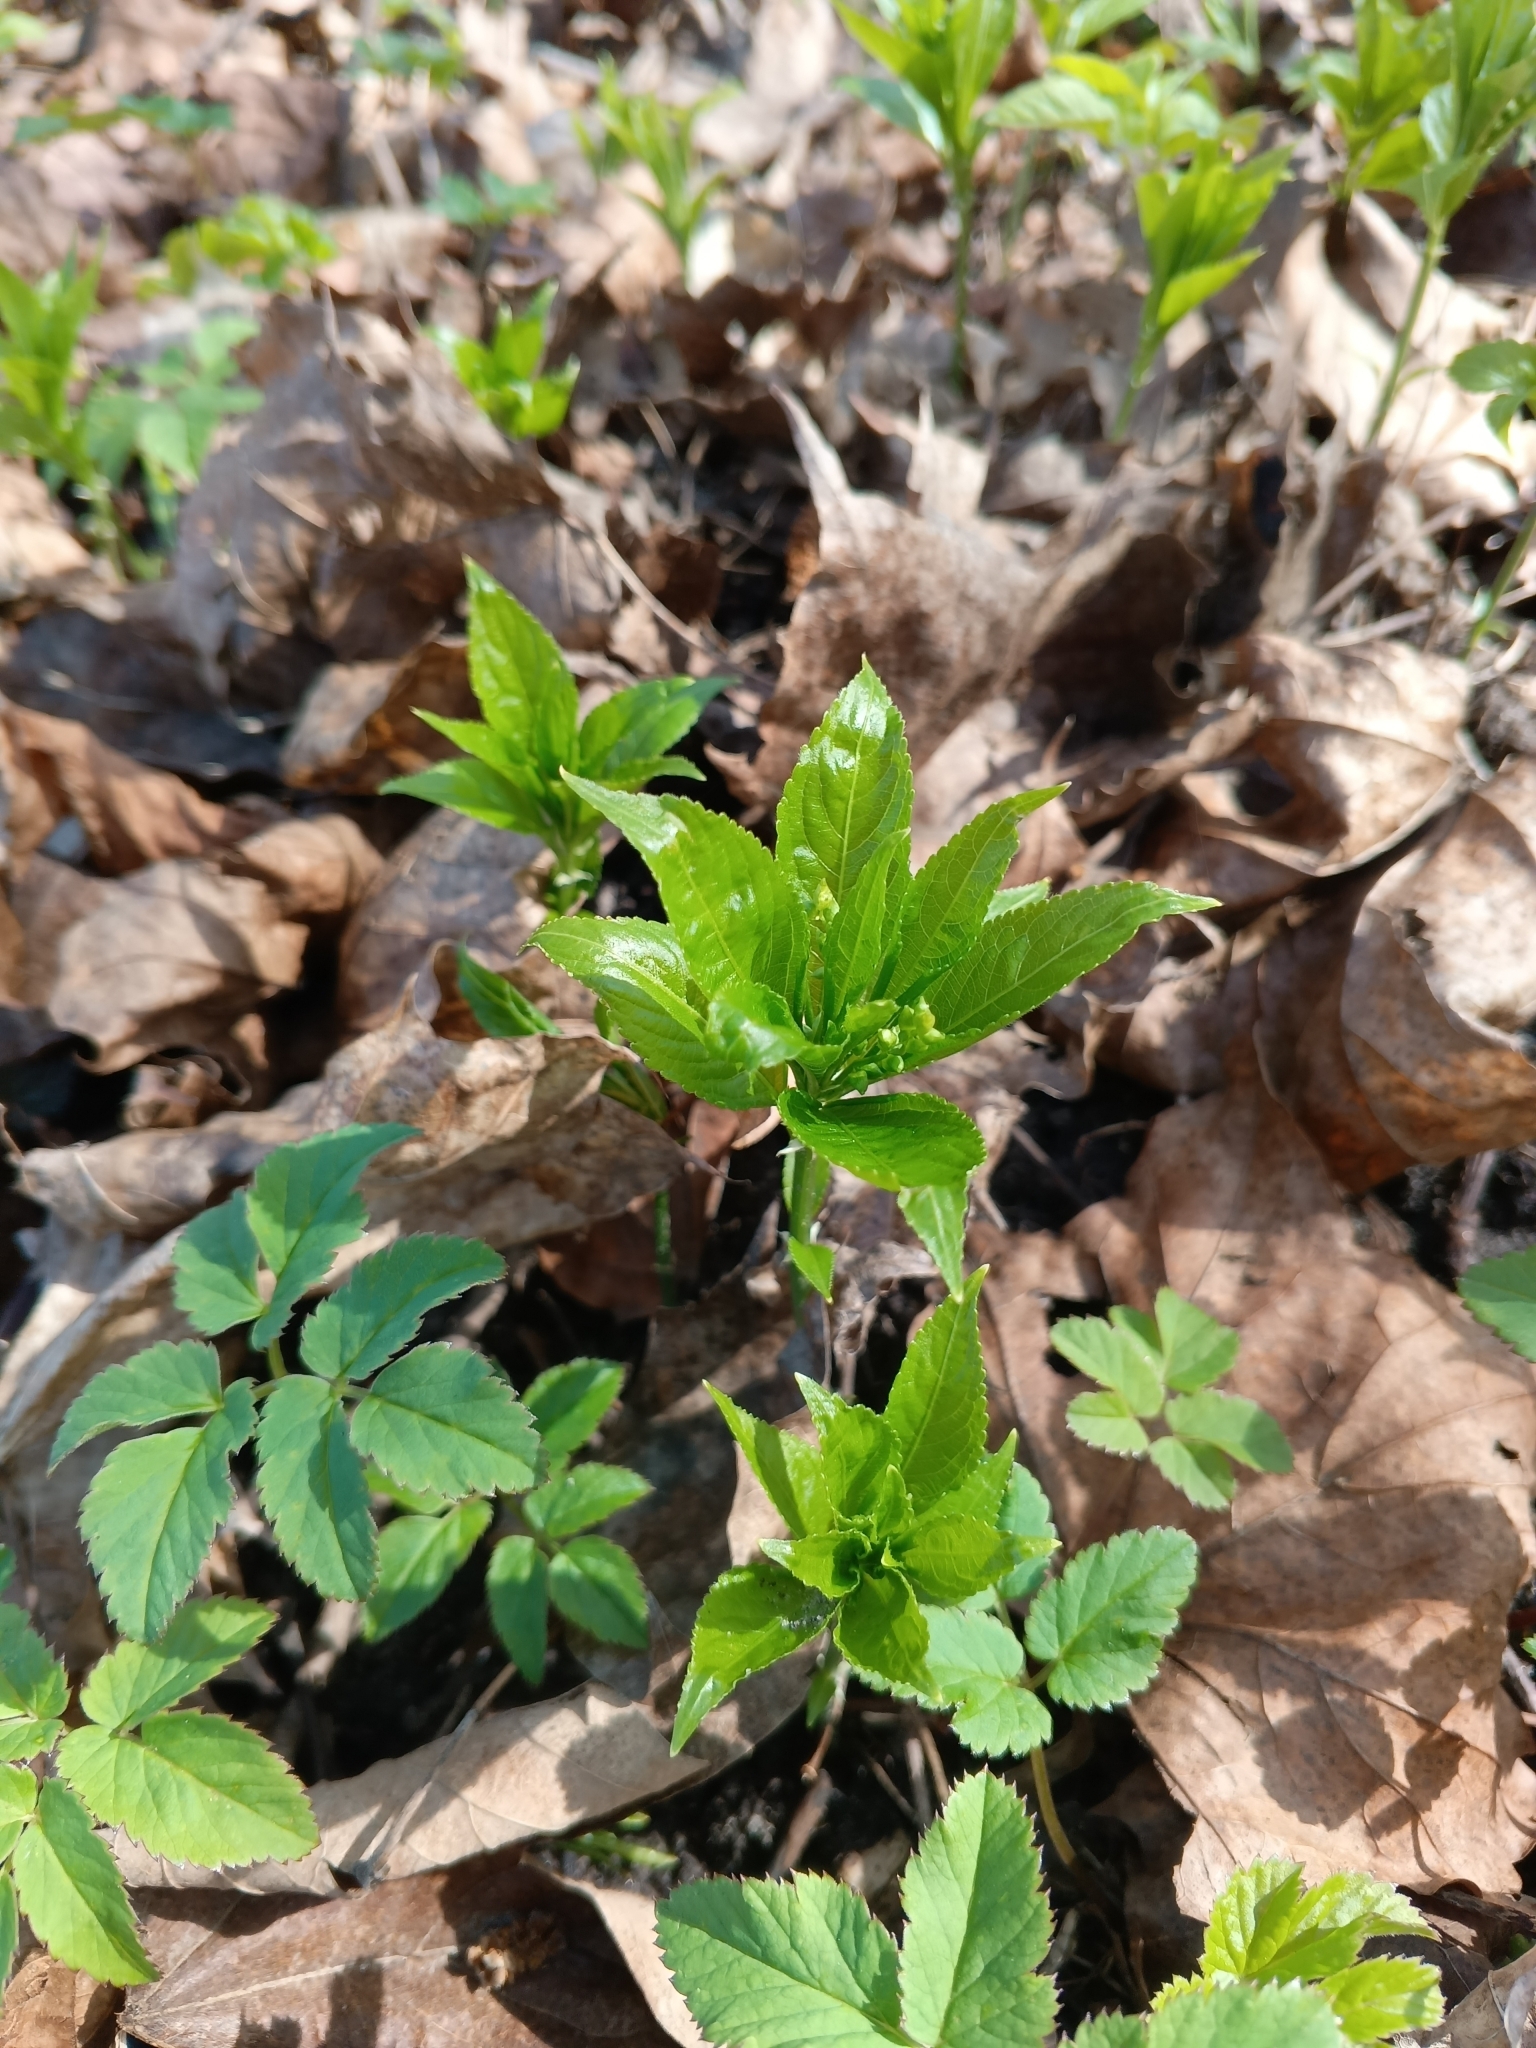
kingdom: Plantae
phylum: Tracheophyta
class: Magnoliopsida
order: Malpighiales
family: Euphorbiaceae
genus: Mercurialis
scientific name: Mercurialis perennis
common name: Dog mercury
